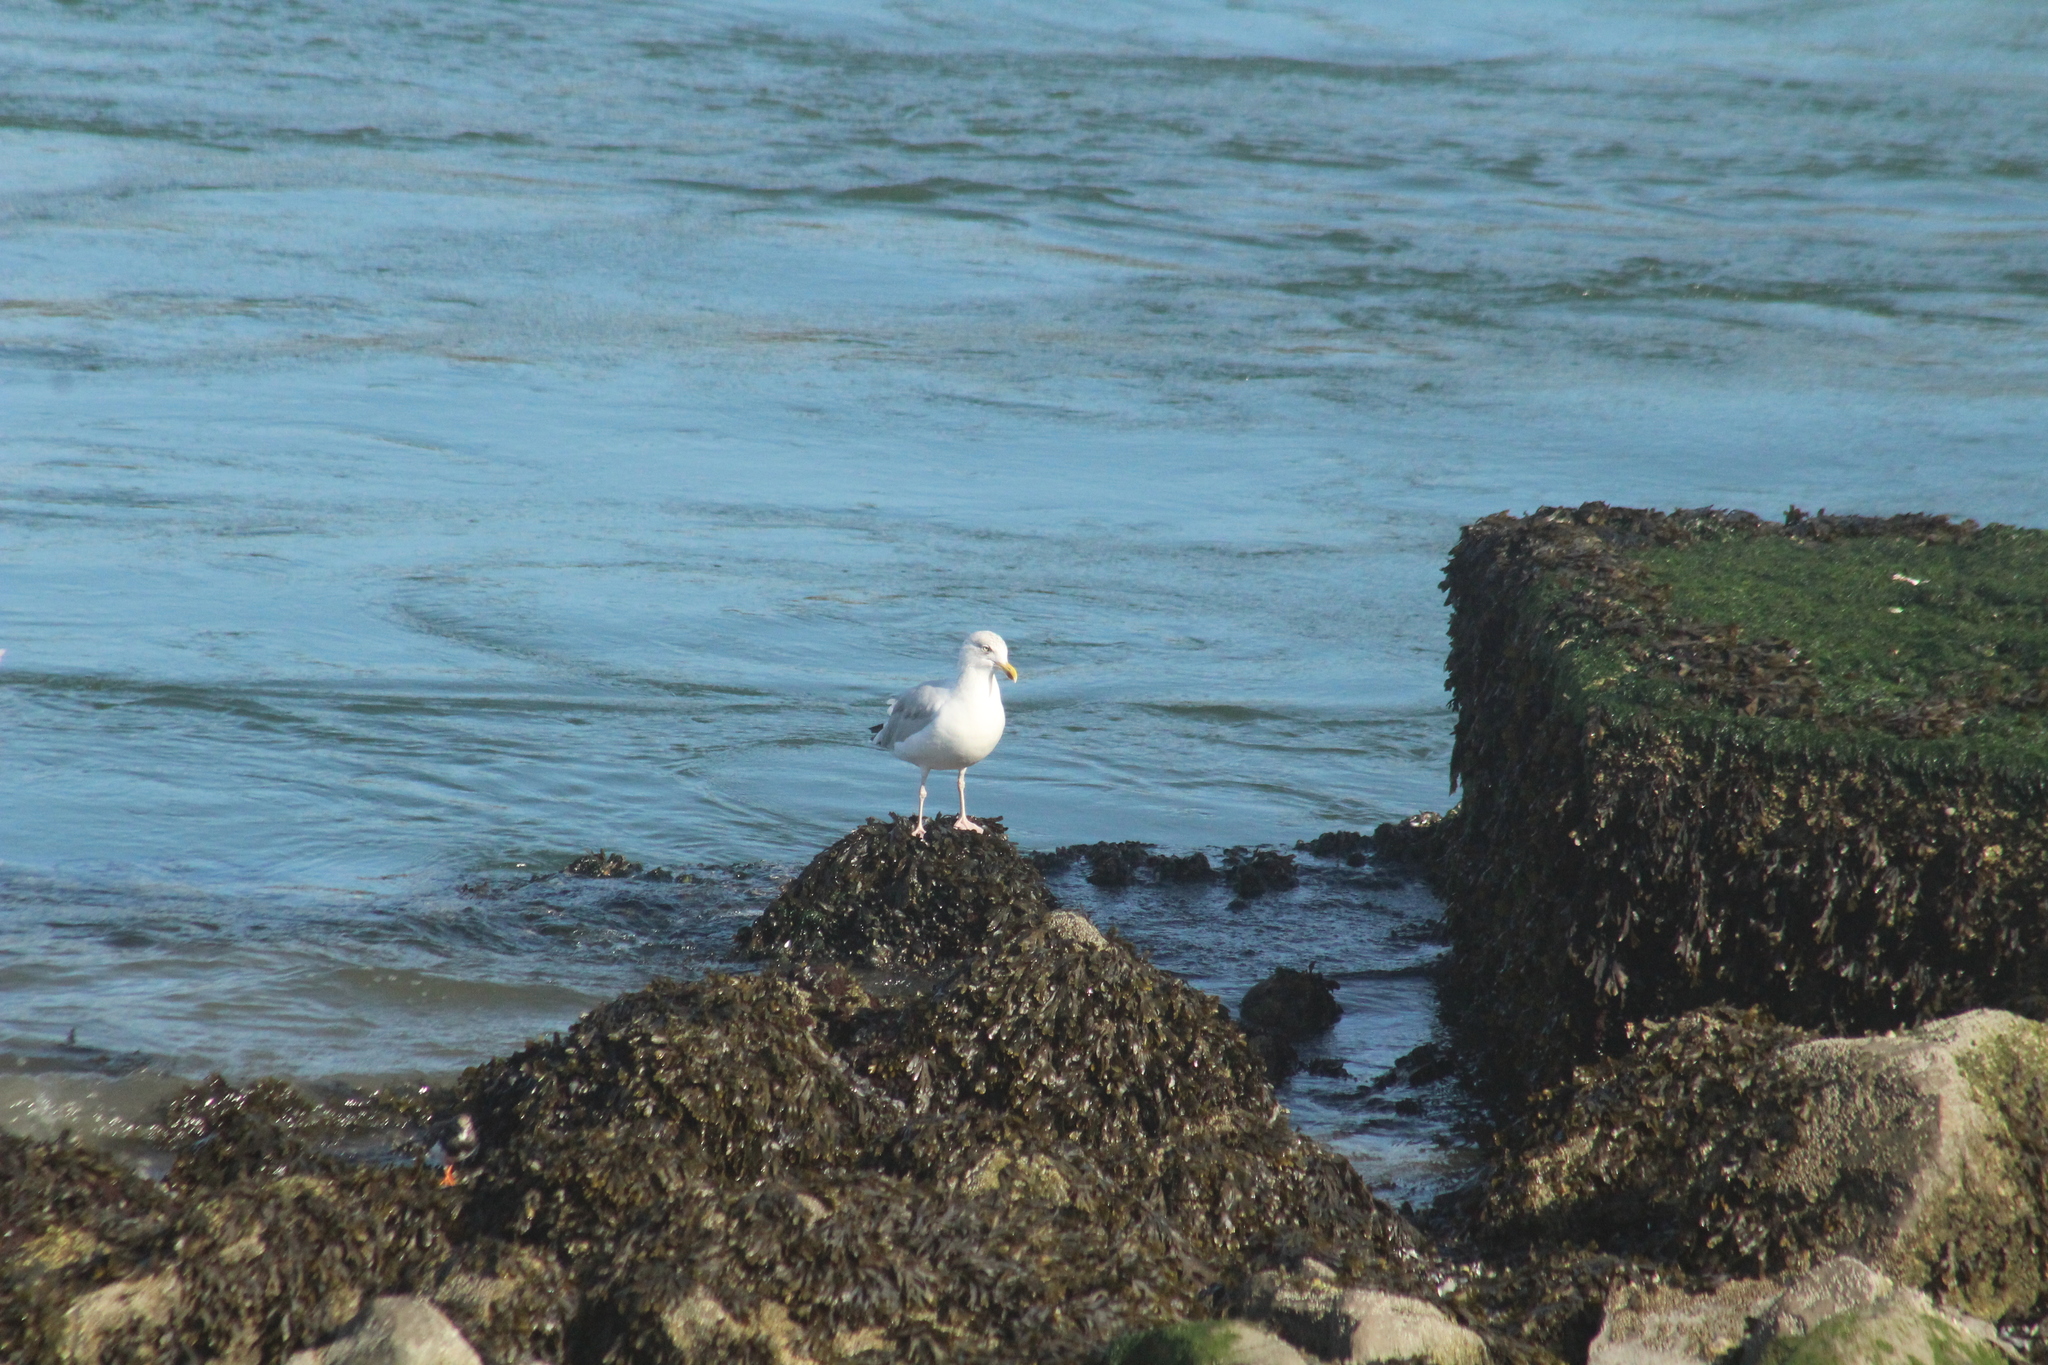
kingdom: Animalia
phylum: Chordata
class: Aves
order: Charadriiformes
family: Laridae
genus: Larus
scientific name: Larus argentatus
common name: Herring gull
